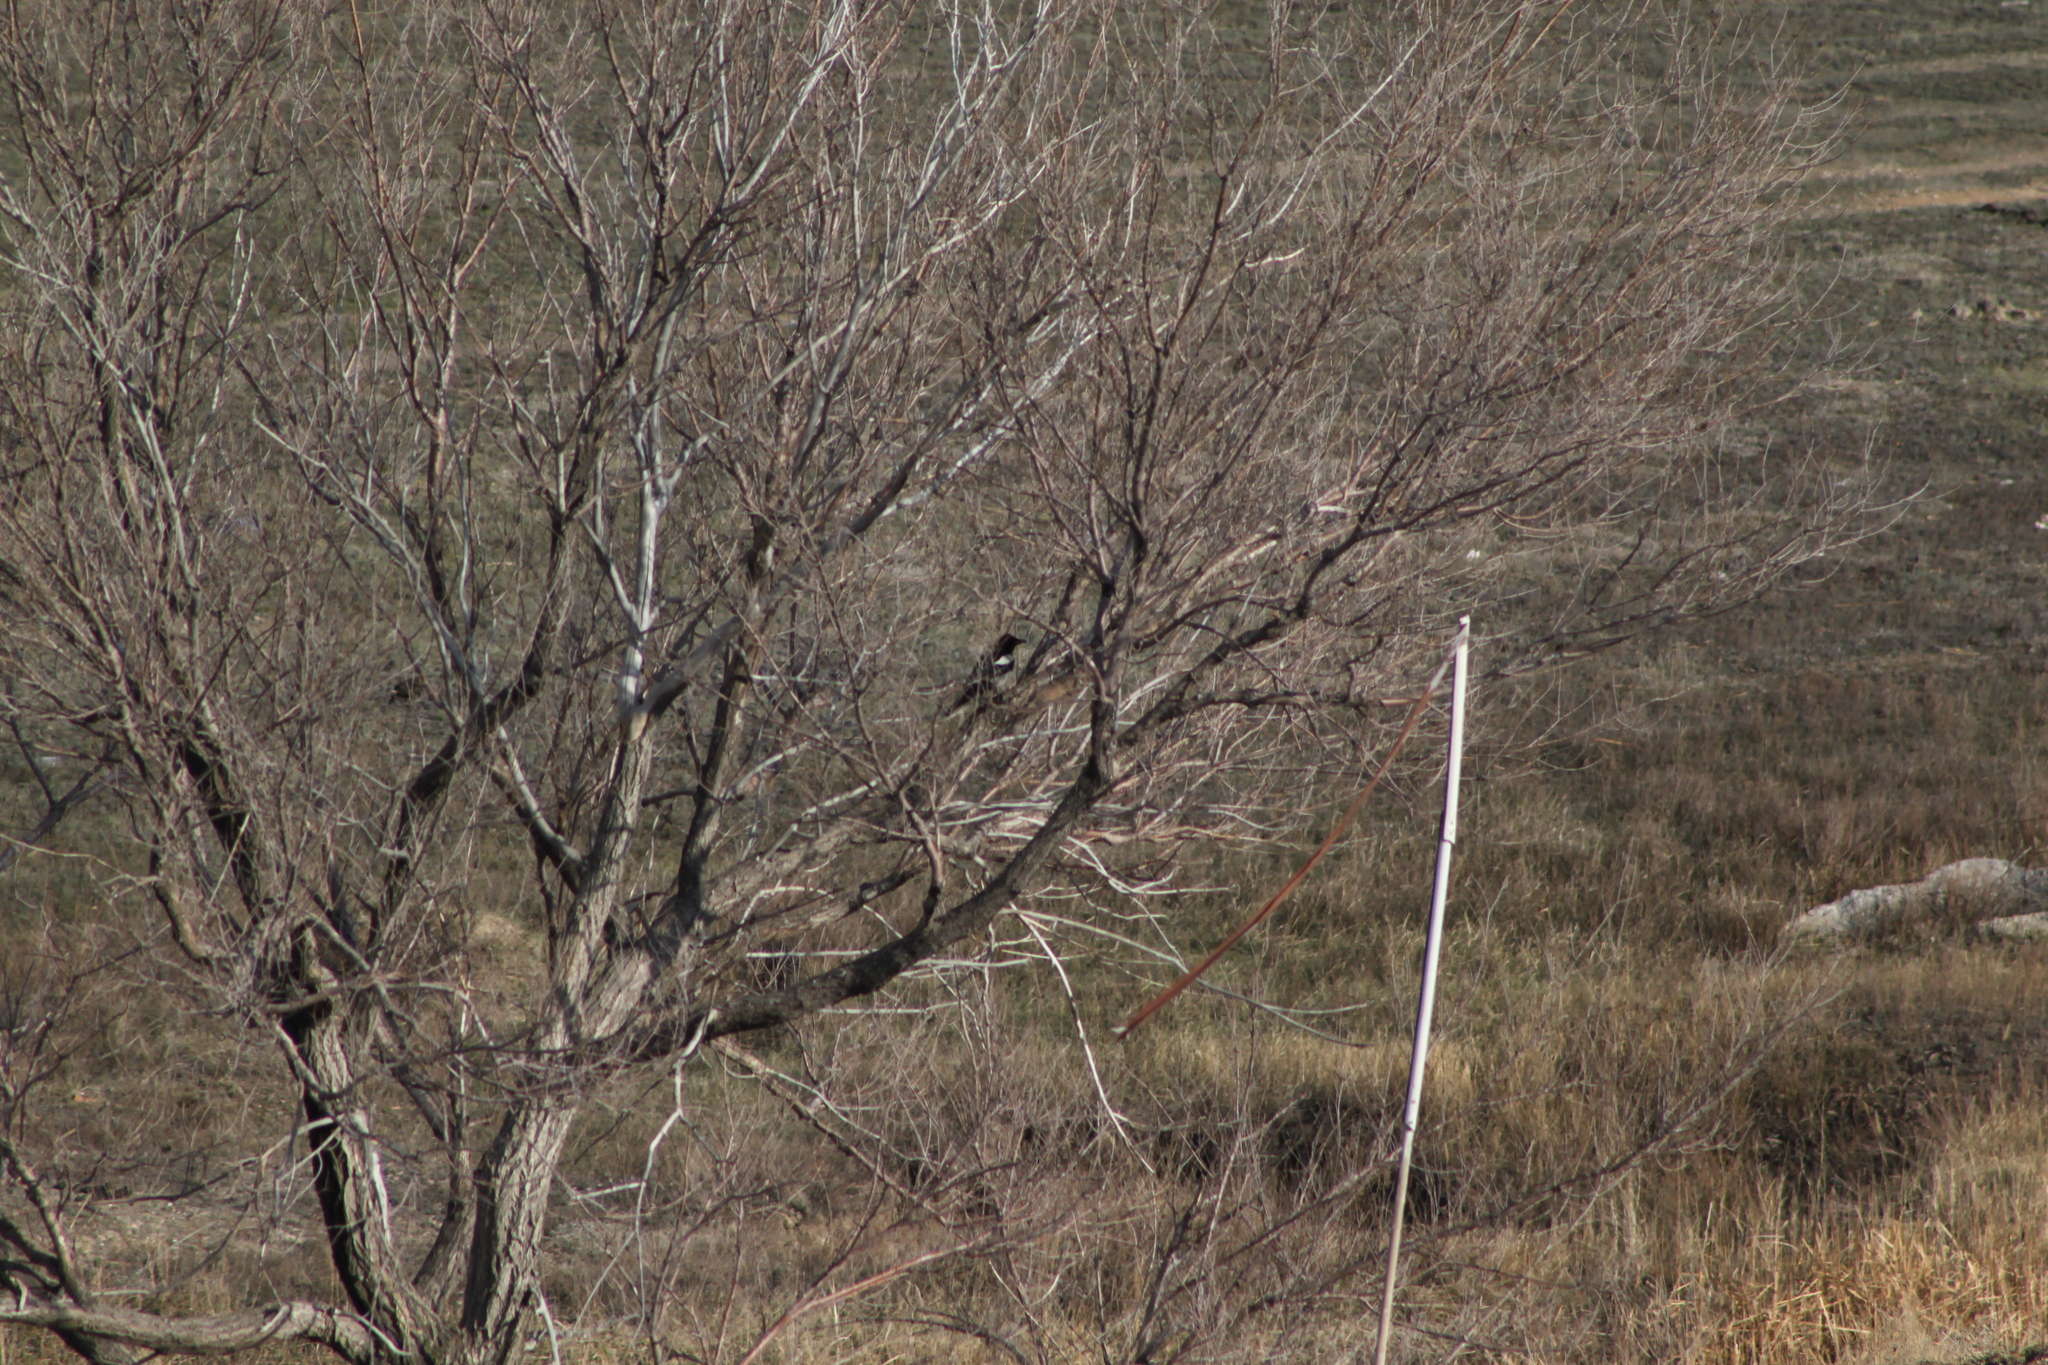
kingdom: Animalia
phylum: Chordata
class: Aves
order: Passeriformes
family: Corvidae
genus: Pica
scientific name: Pica pica
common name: Eurasian magpie
